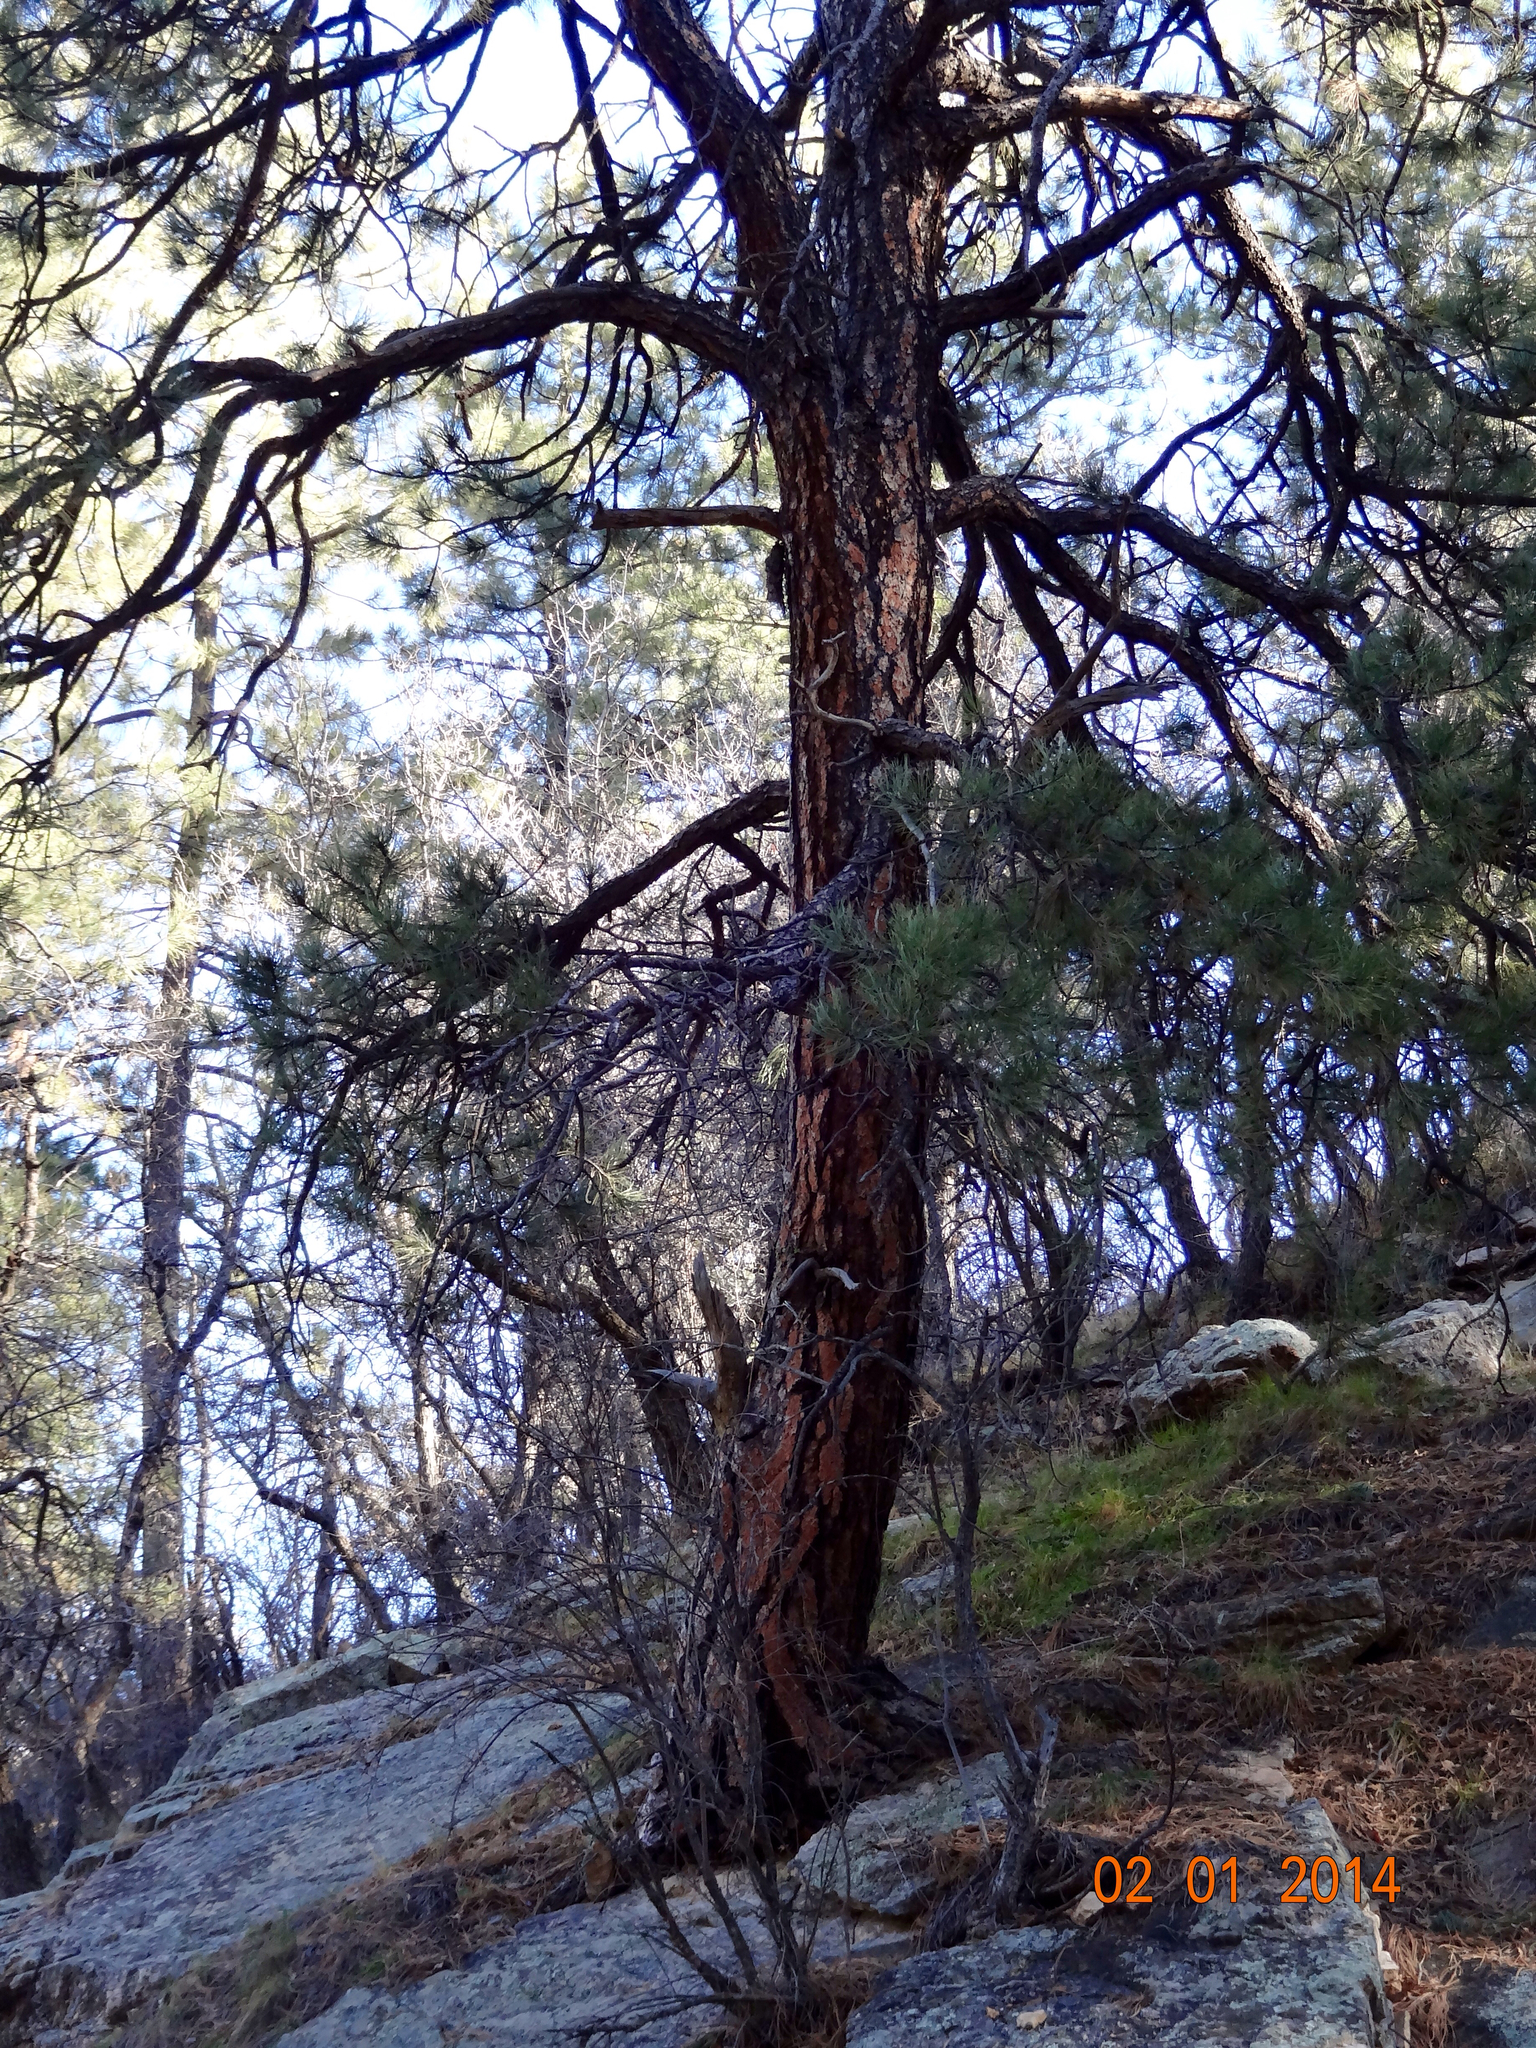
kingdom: Plantae
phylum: Tracheophyta
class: Pinopsida
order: Pinales
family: Pinaceae
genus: Pinus
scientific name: Pinus ponderosa
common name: Western yellow-pine
